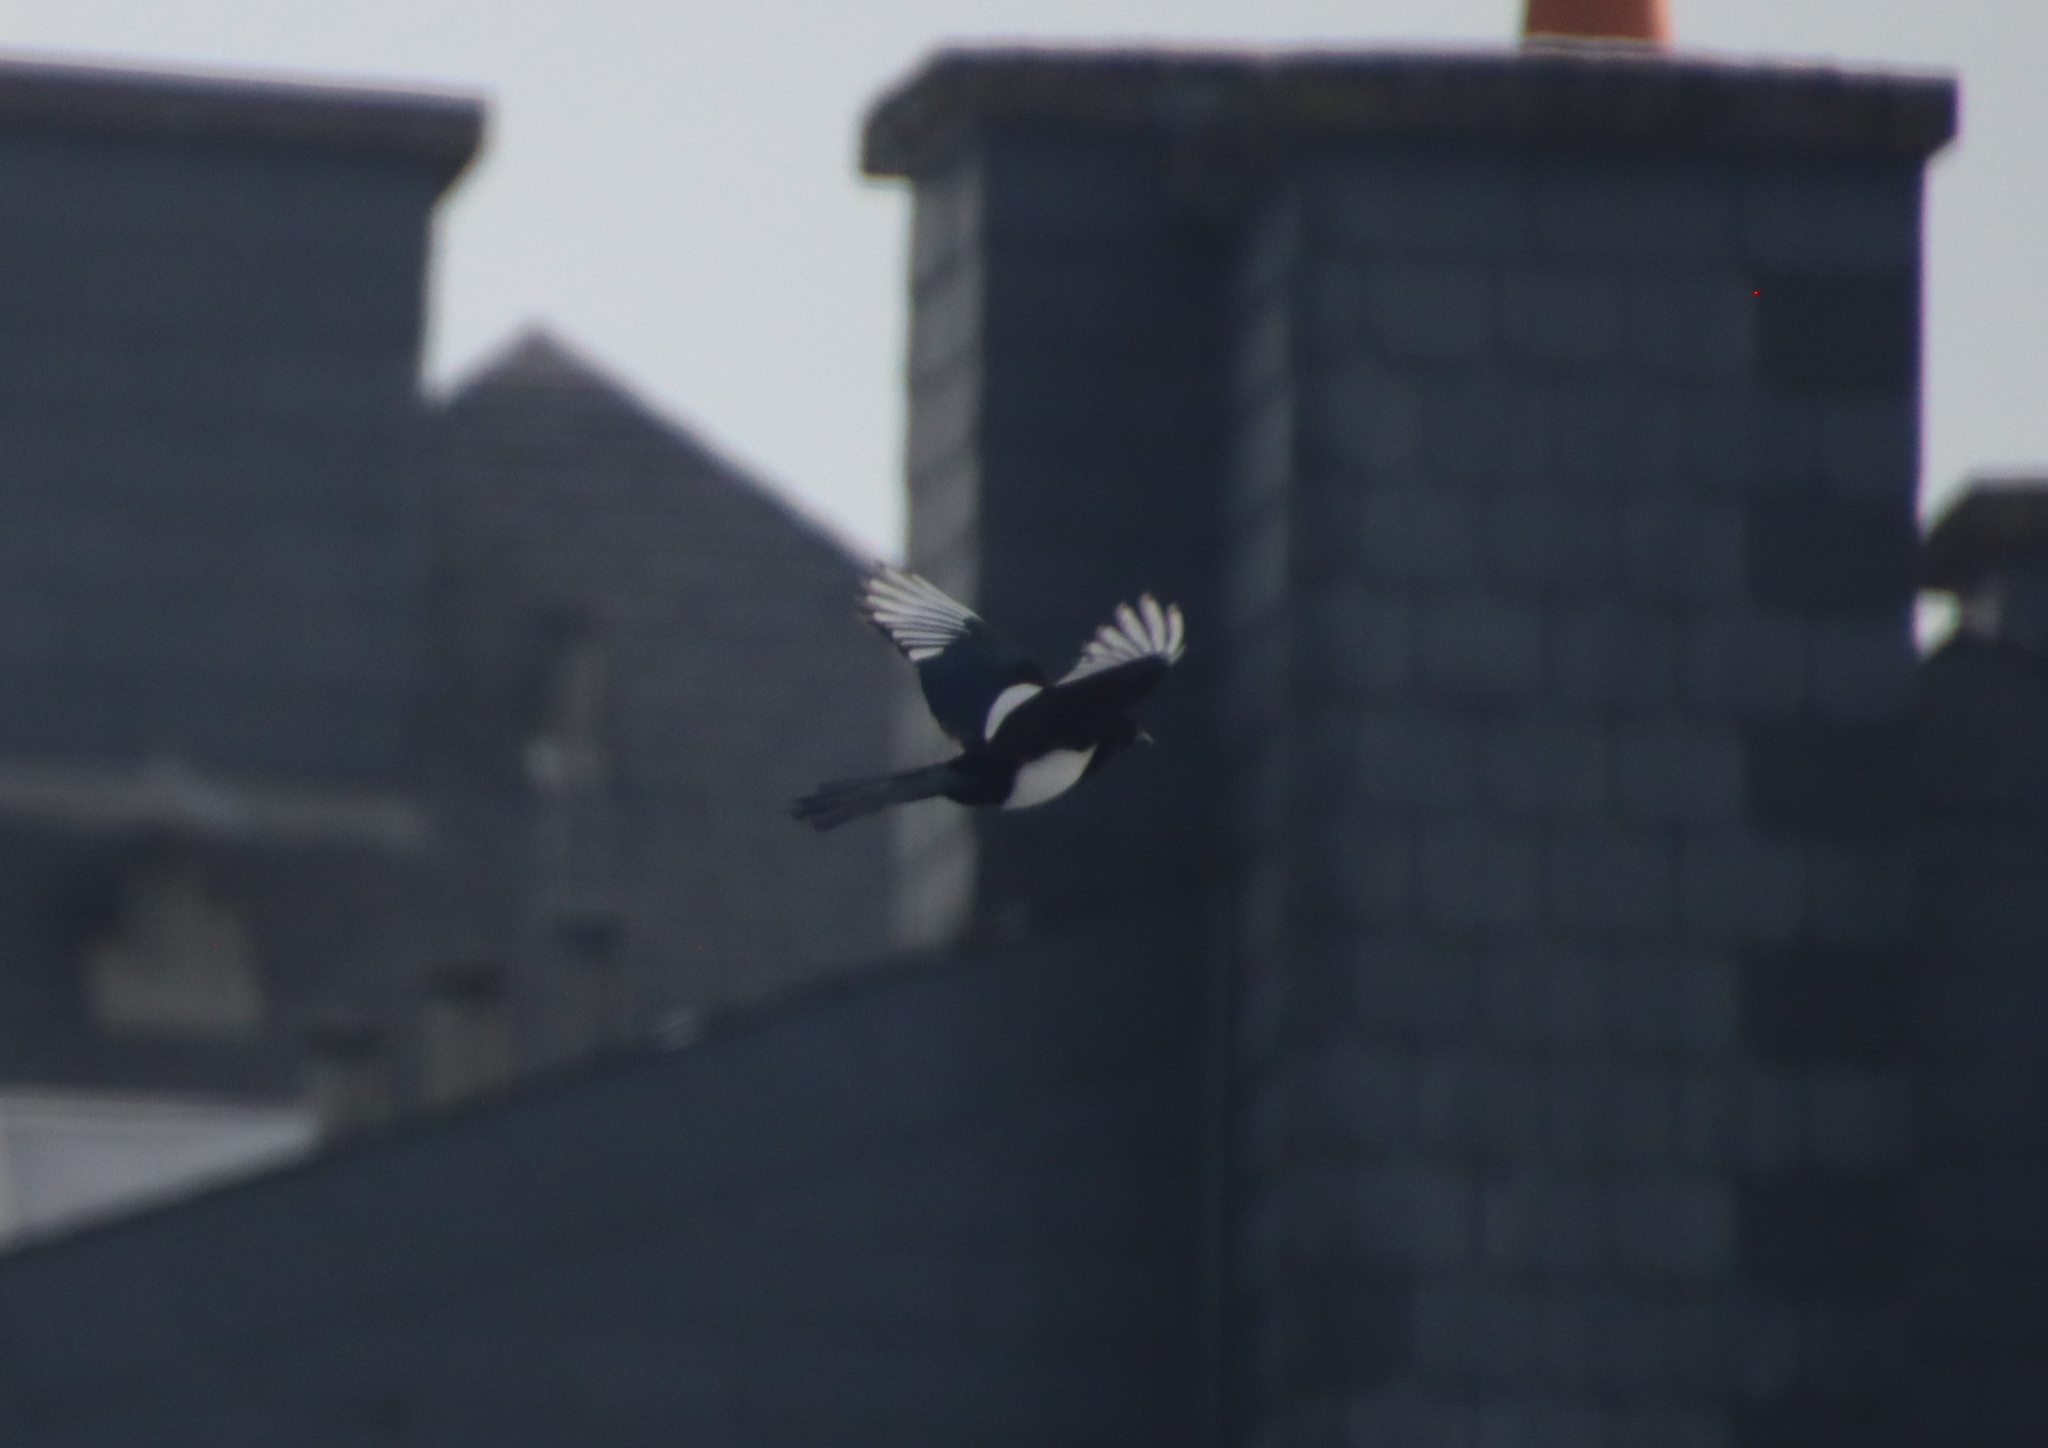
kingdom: Animalia
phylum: Chordata
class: Aves
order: Passeriformes
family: Corvidae
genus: Pica
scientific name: Pica pica
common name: Eurasian magpie
